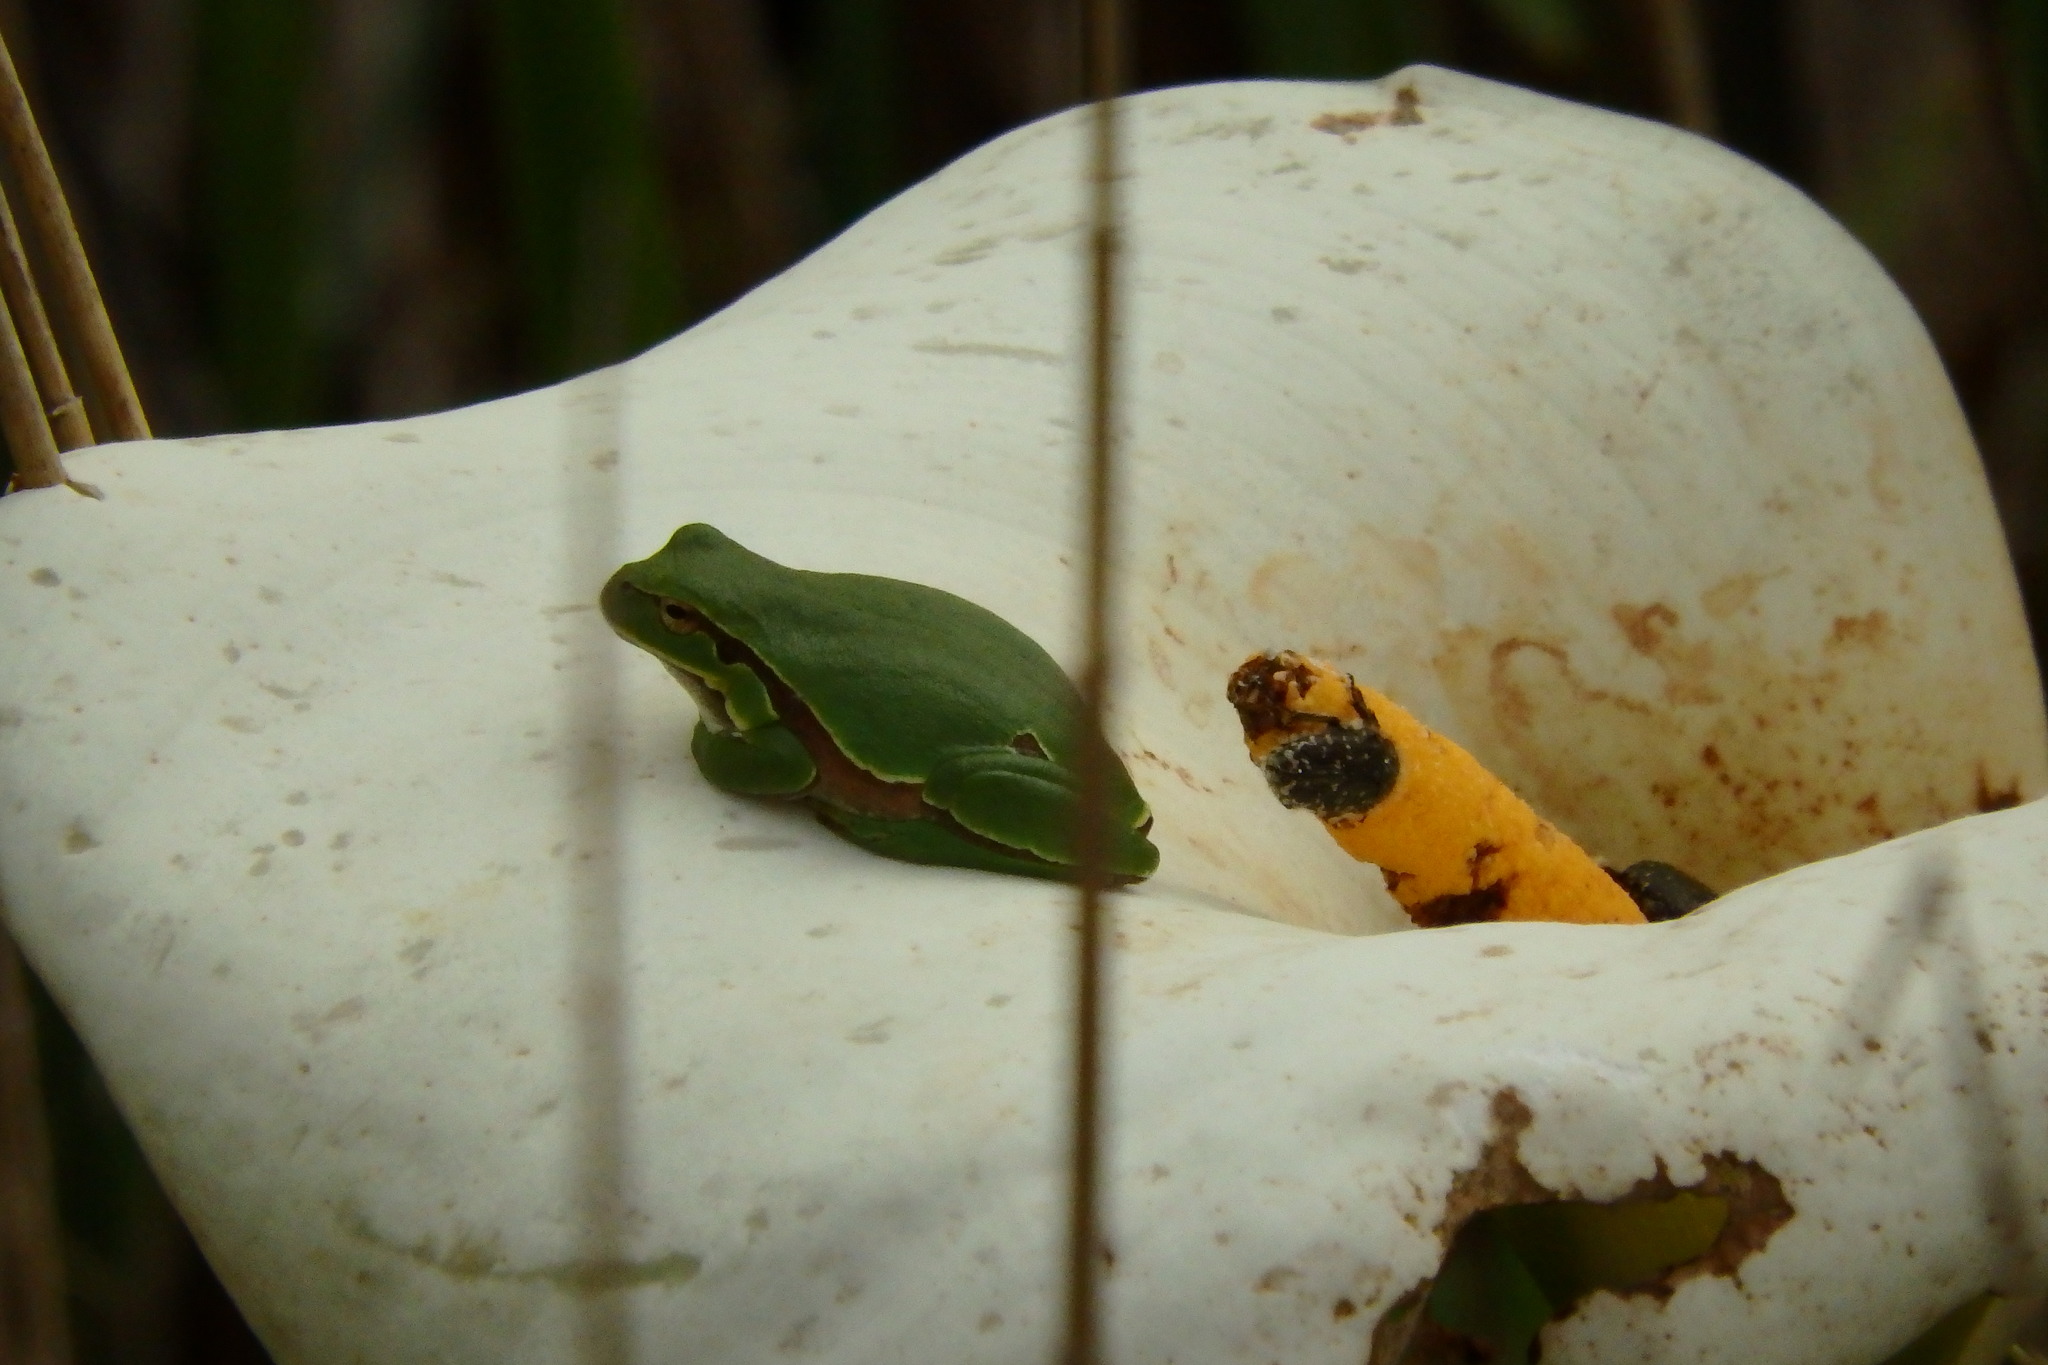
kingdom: Animalia
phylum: Chordata
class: Amphibia
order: Anura
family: Hylidae
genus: Hyla
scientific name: Hyla molleri
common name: Iberian tree frog
